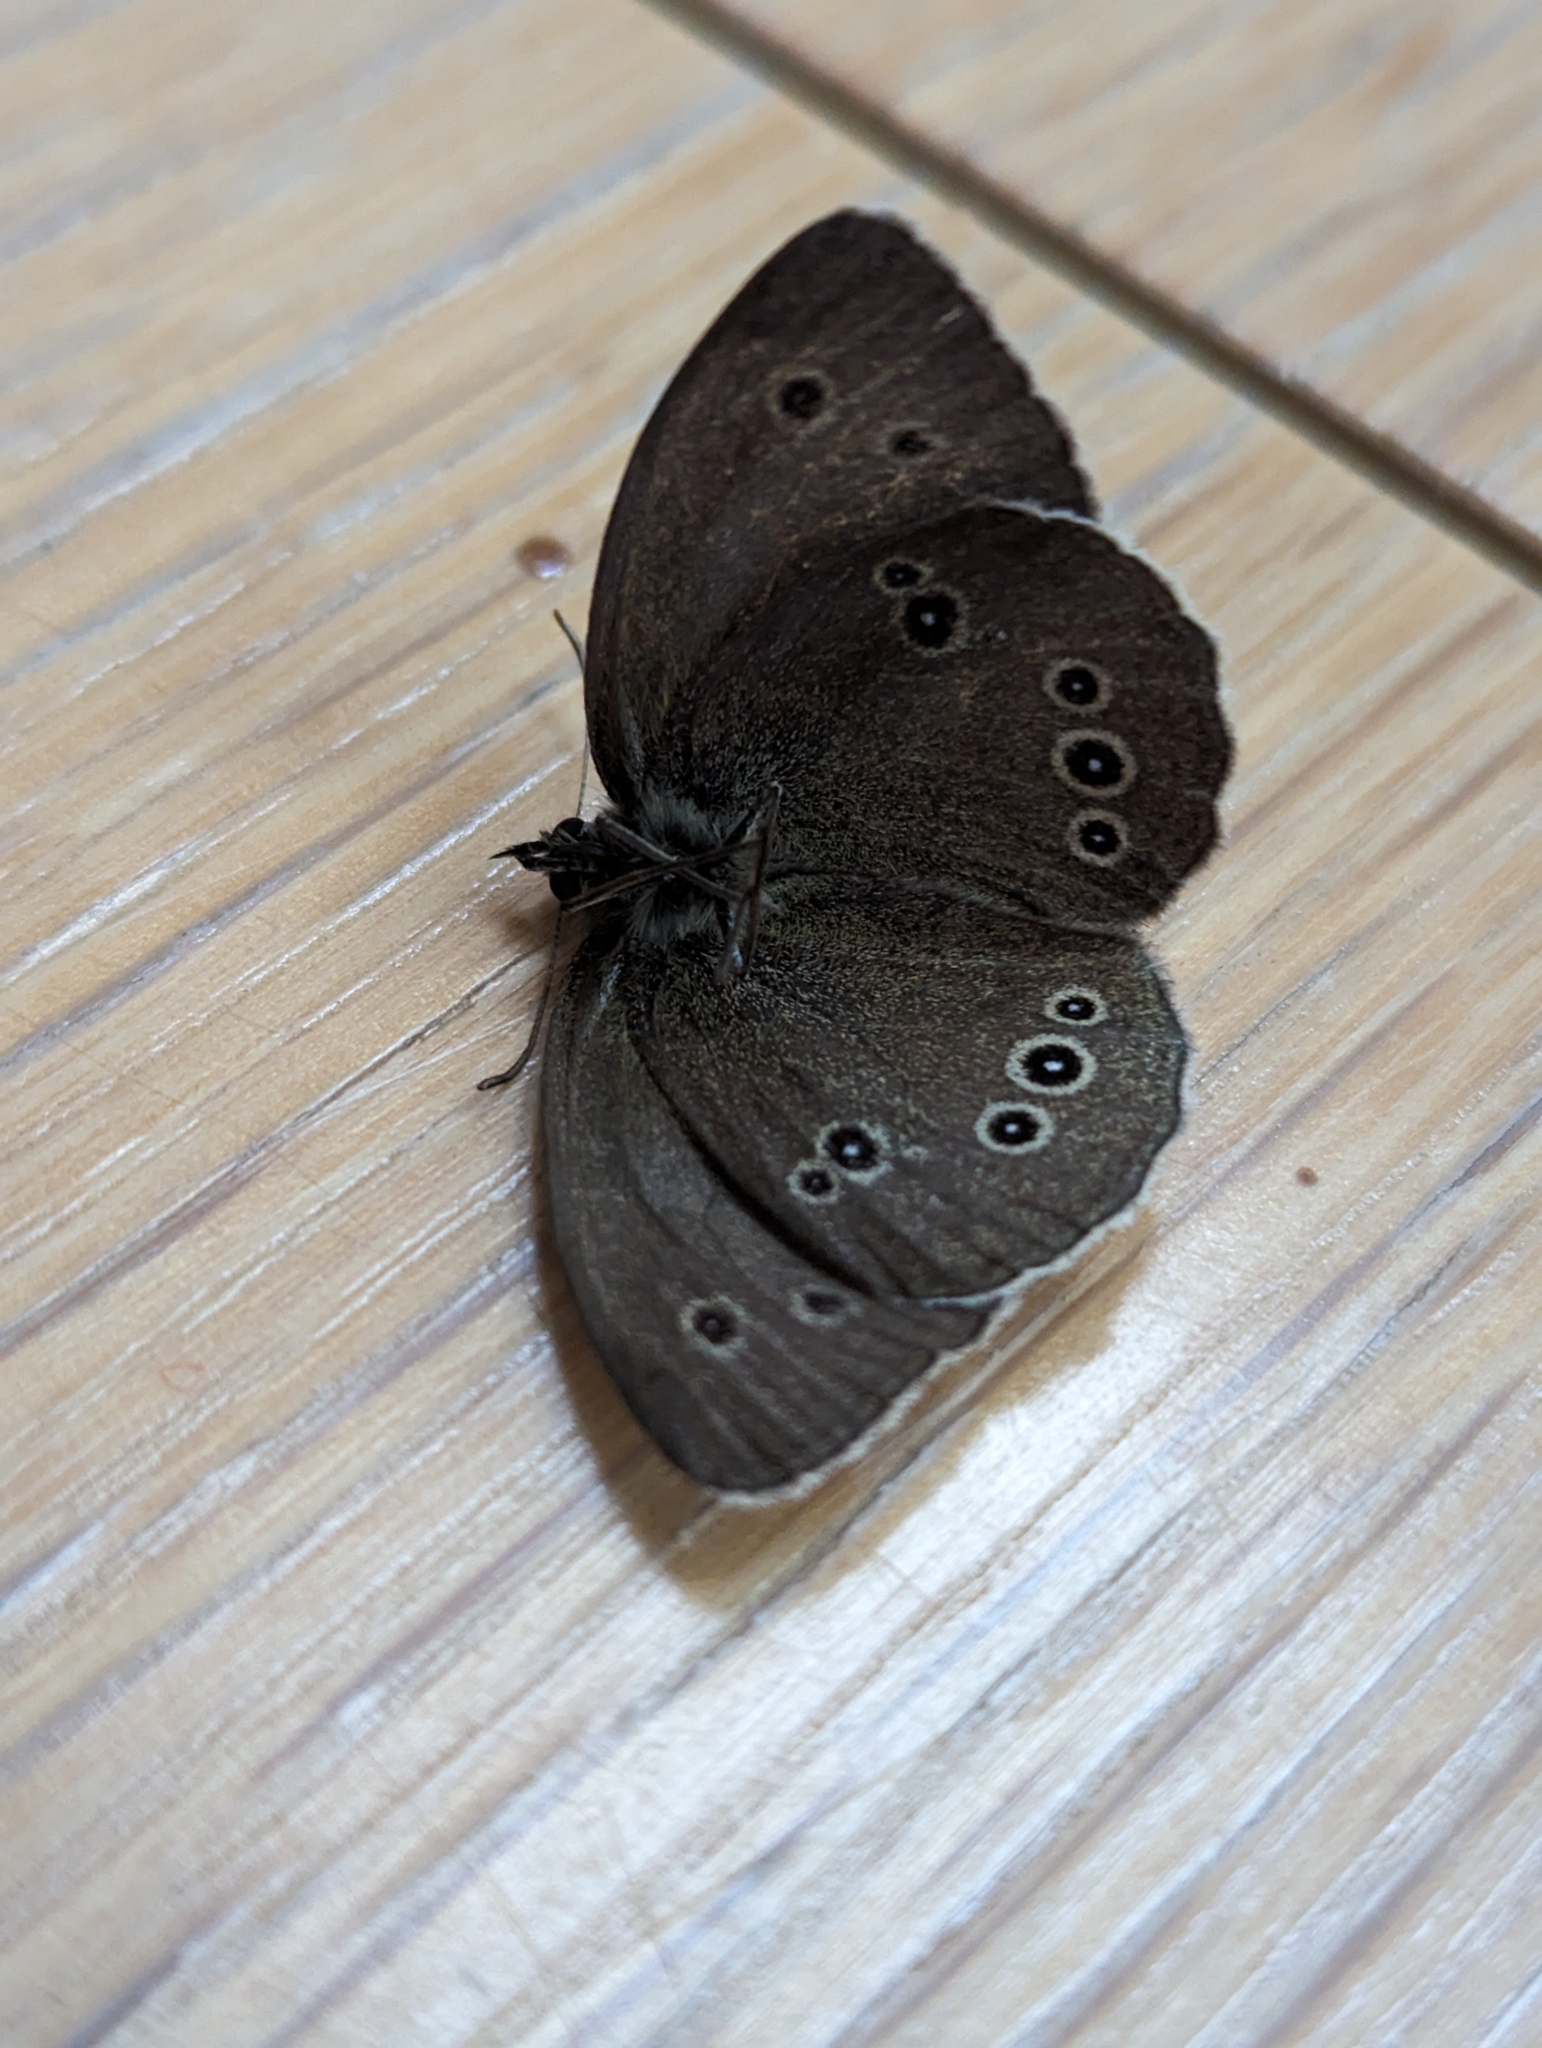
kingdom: Animalia
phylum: Arthropoda
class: Insecta
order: Lepidoptera
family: Nymphalidae
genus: Aphantopus
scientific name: Aphantopus hyperantus
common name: Ringlet
